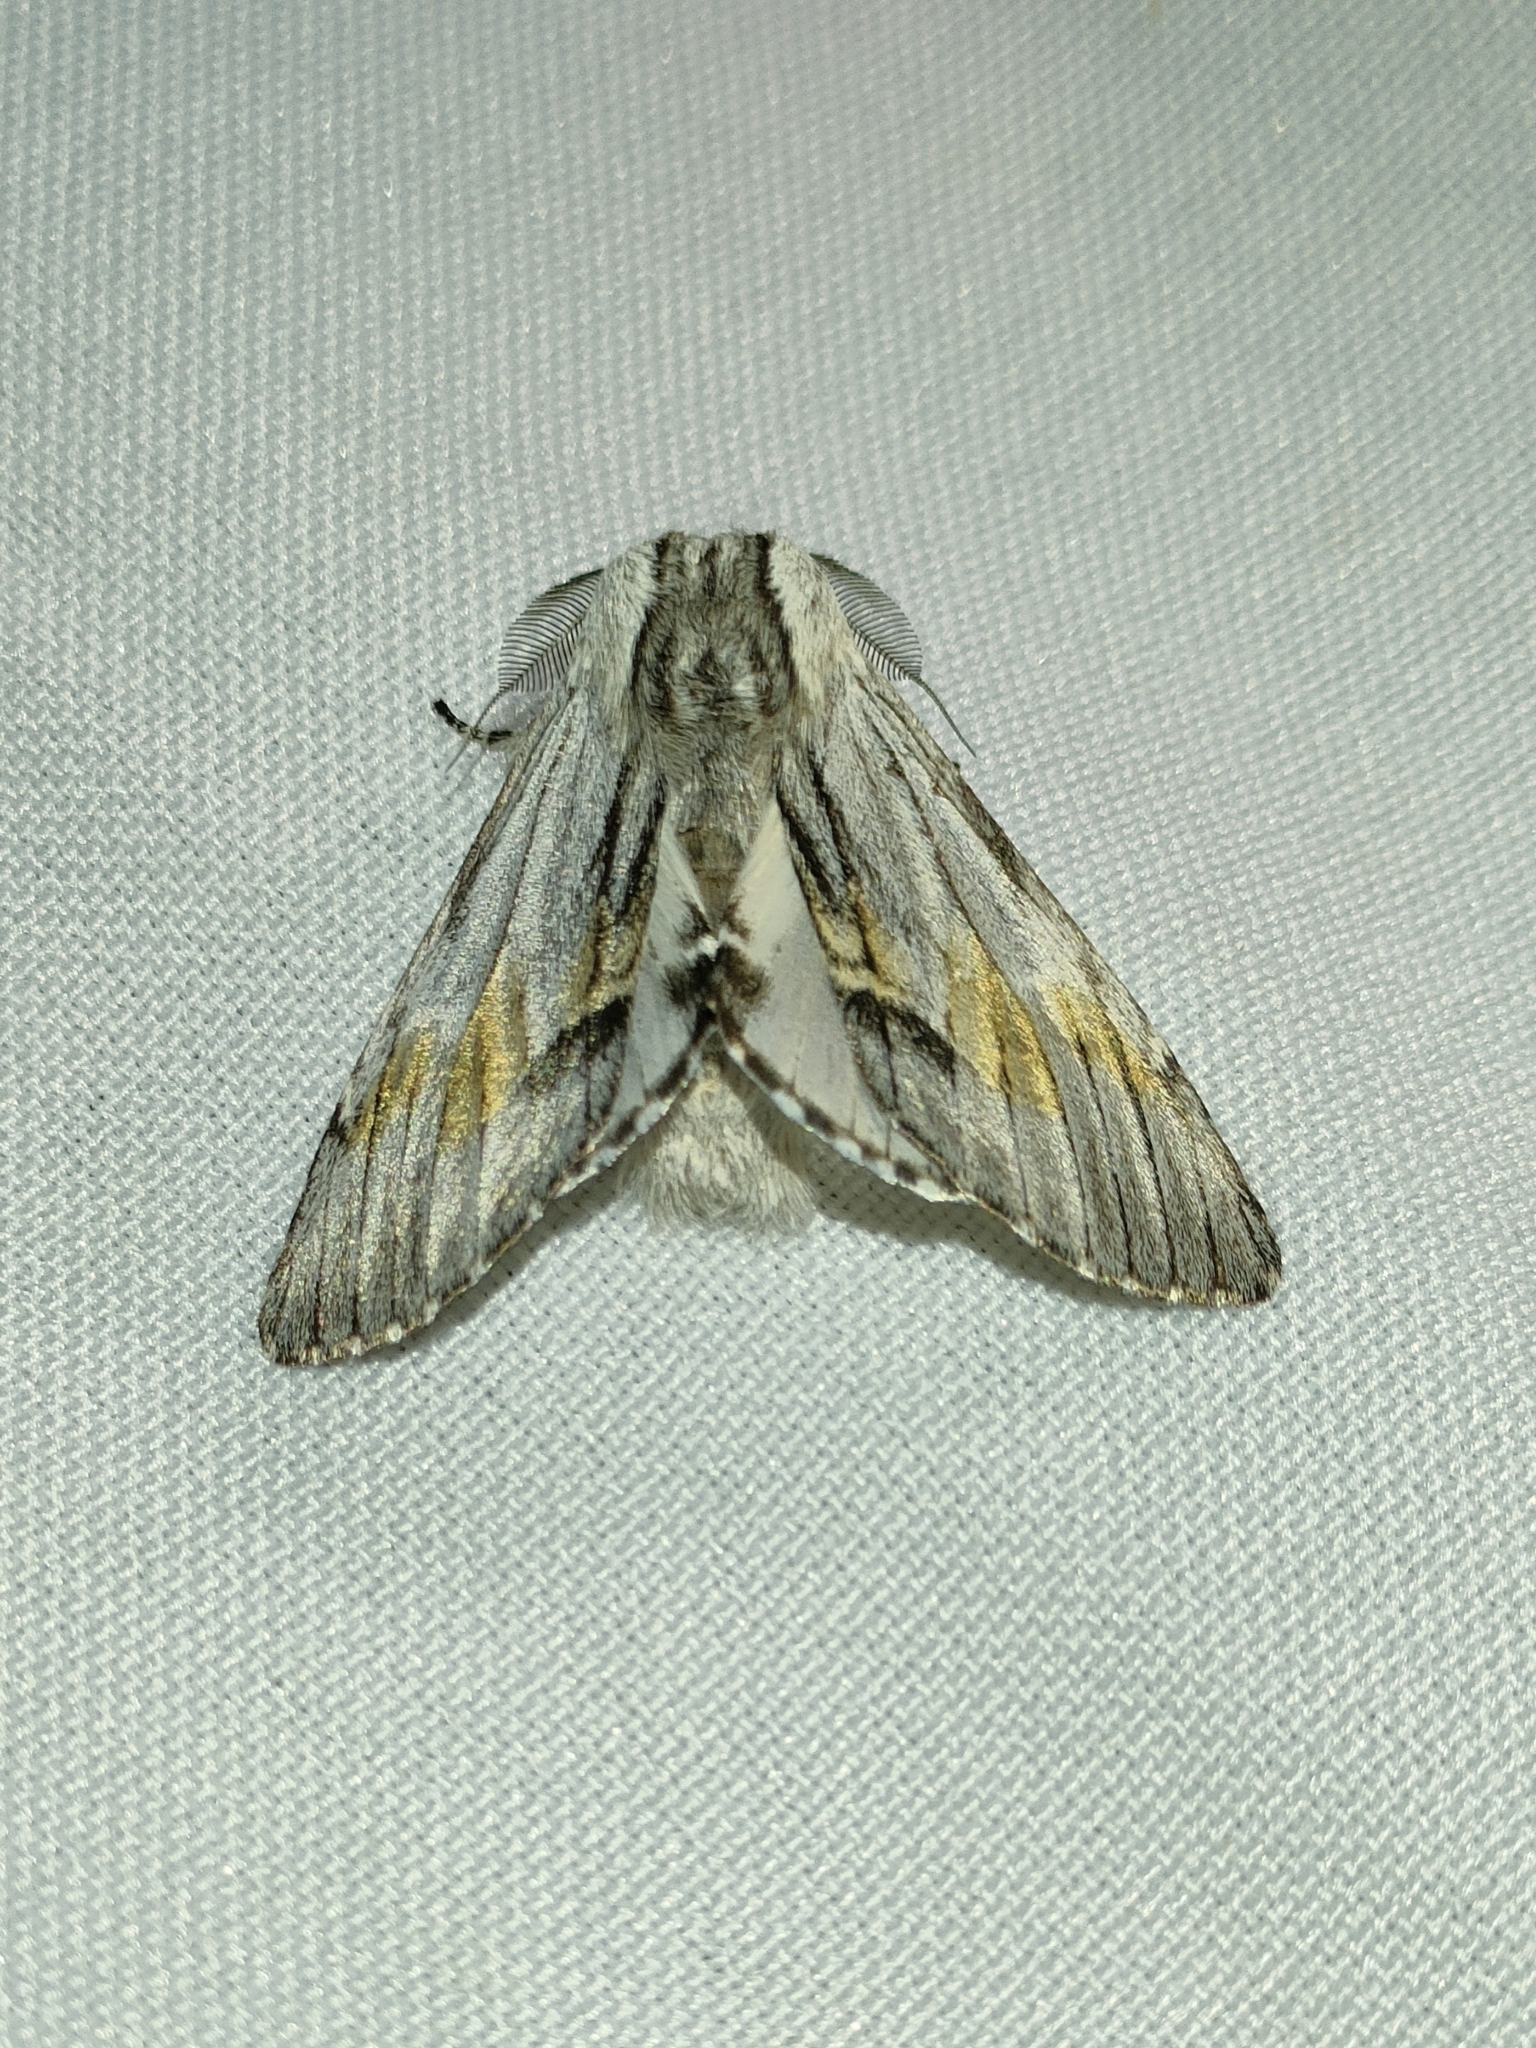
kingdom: Animalia
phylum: Arthropoda
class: Insecta
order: Lepidoptera
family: Notodontidae
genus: Harpyia
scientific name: Harpyia milhauseri
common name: Tawny prominent
